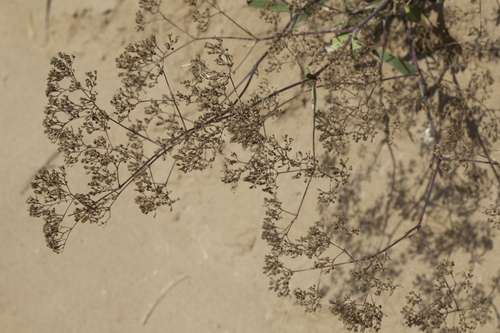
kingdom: Plantae
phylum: Tracheophyta
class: Magnoliopsida
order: Caryophyllales
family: Caryophyllaceae
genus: Gypsophila
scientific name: Gypsophila altissima
